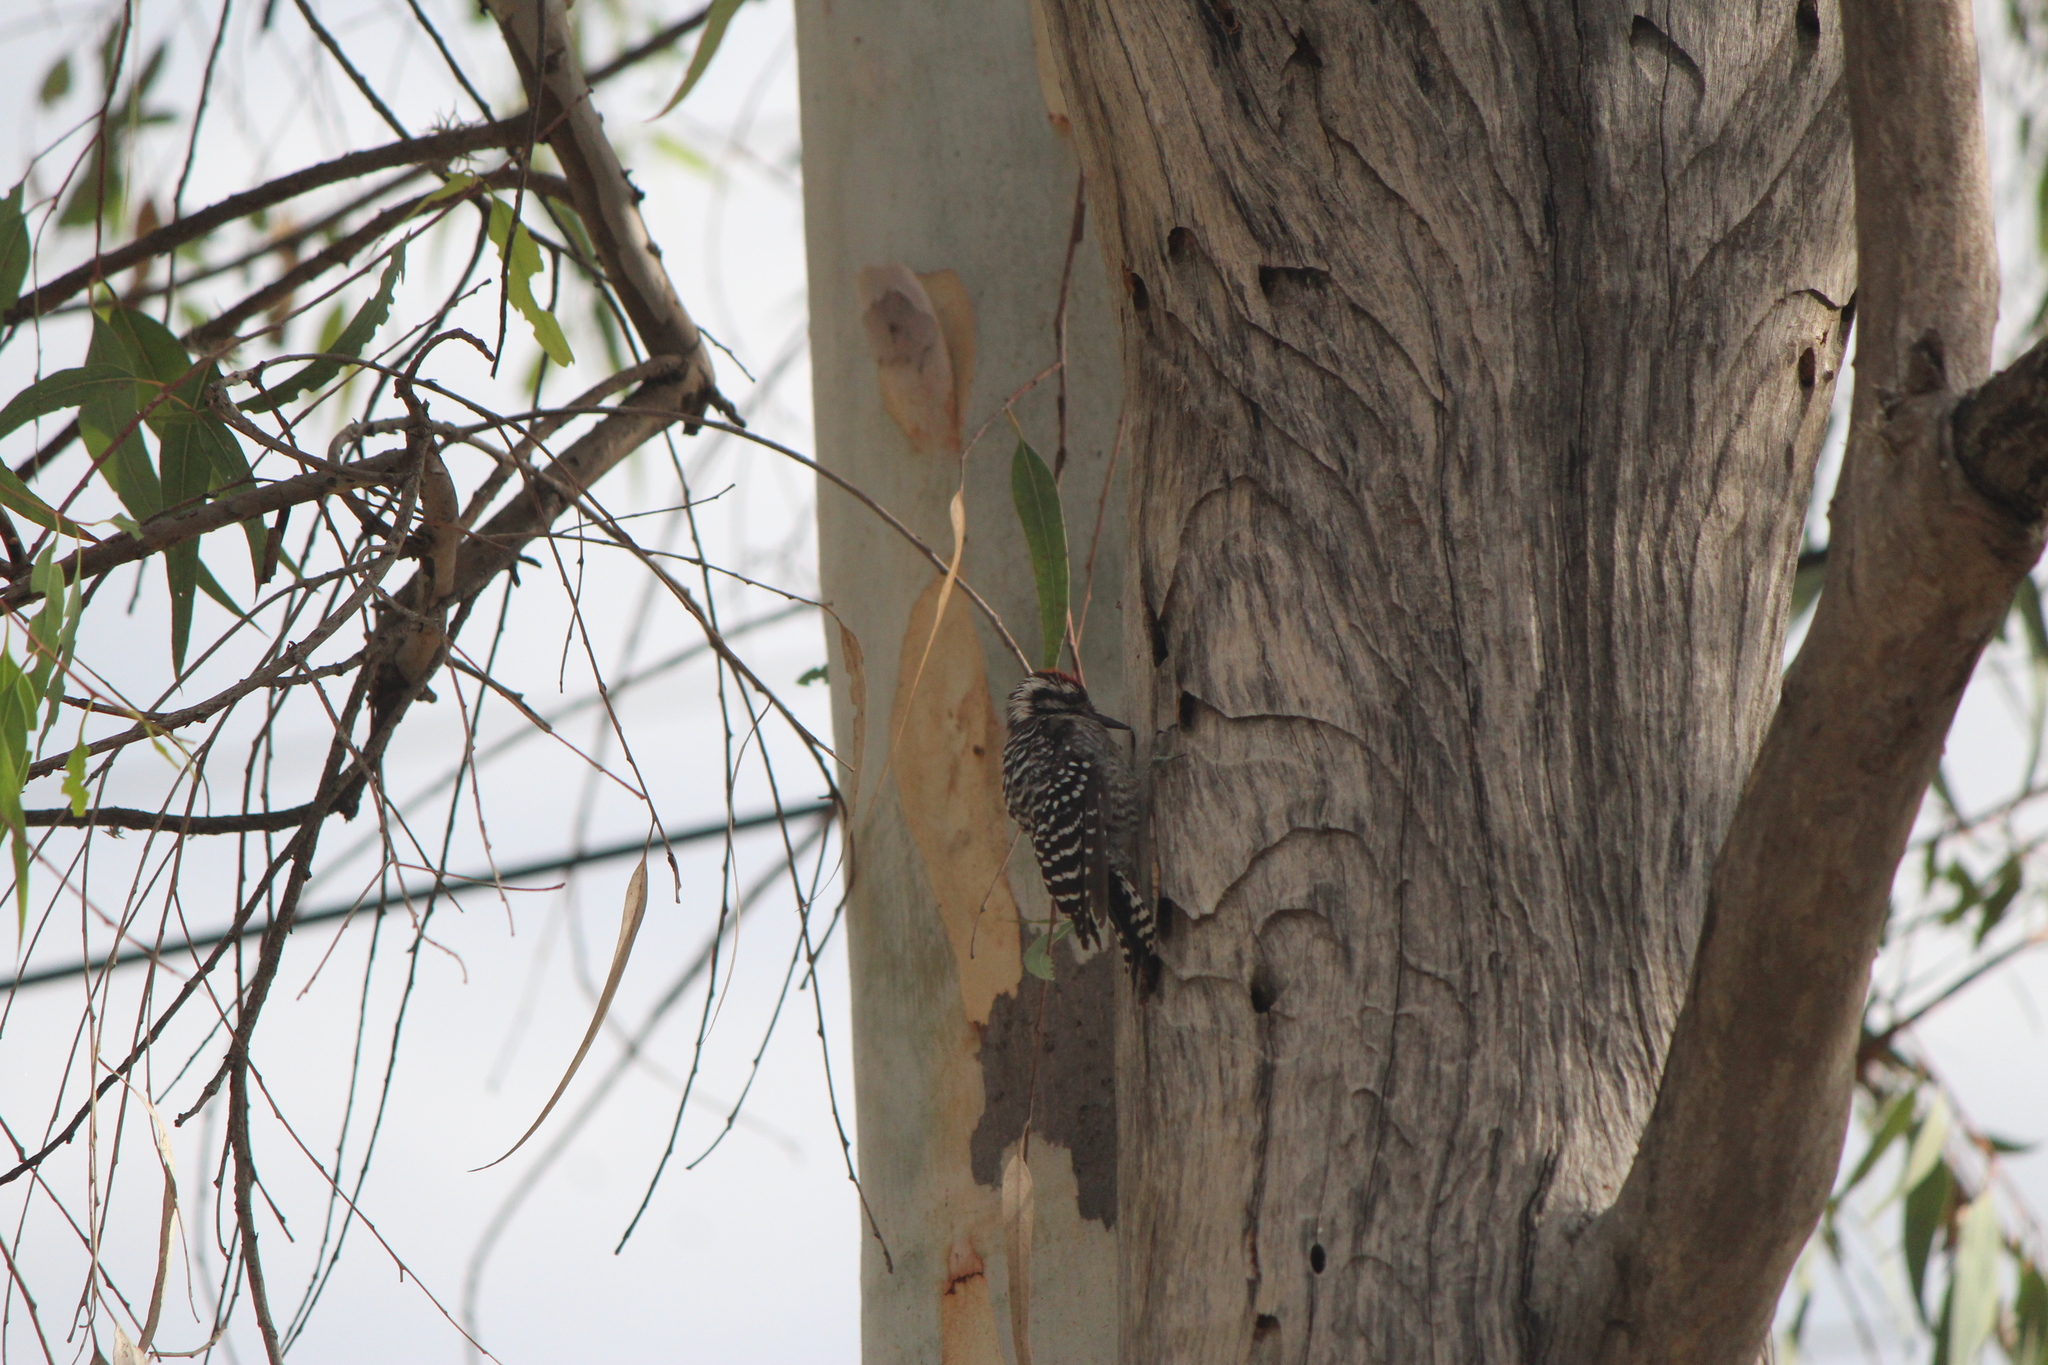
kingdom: Animalia
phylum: Chordata
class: Aves
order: Piciformes
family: Picidae
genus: Dryobates
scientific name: Dryobates scalaris
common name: Ladder-backed woodpecker
